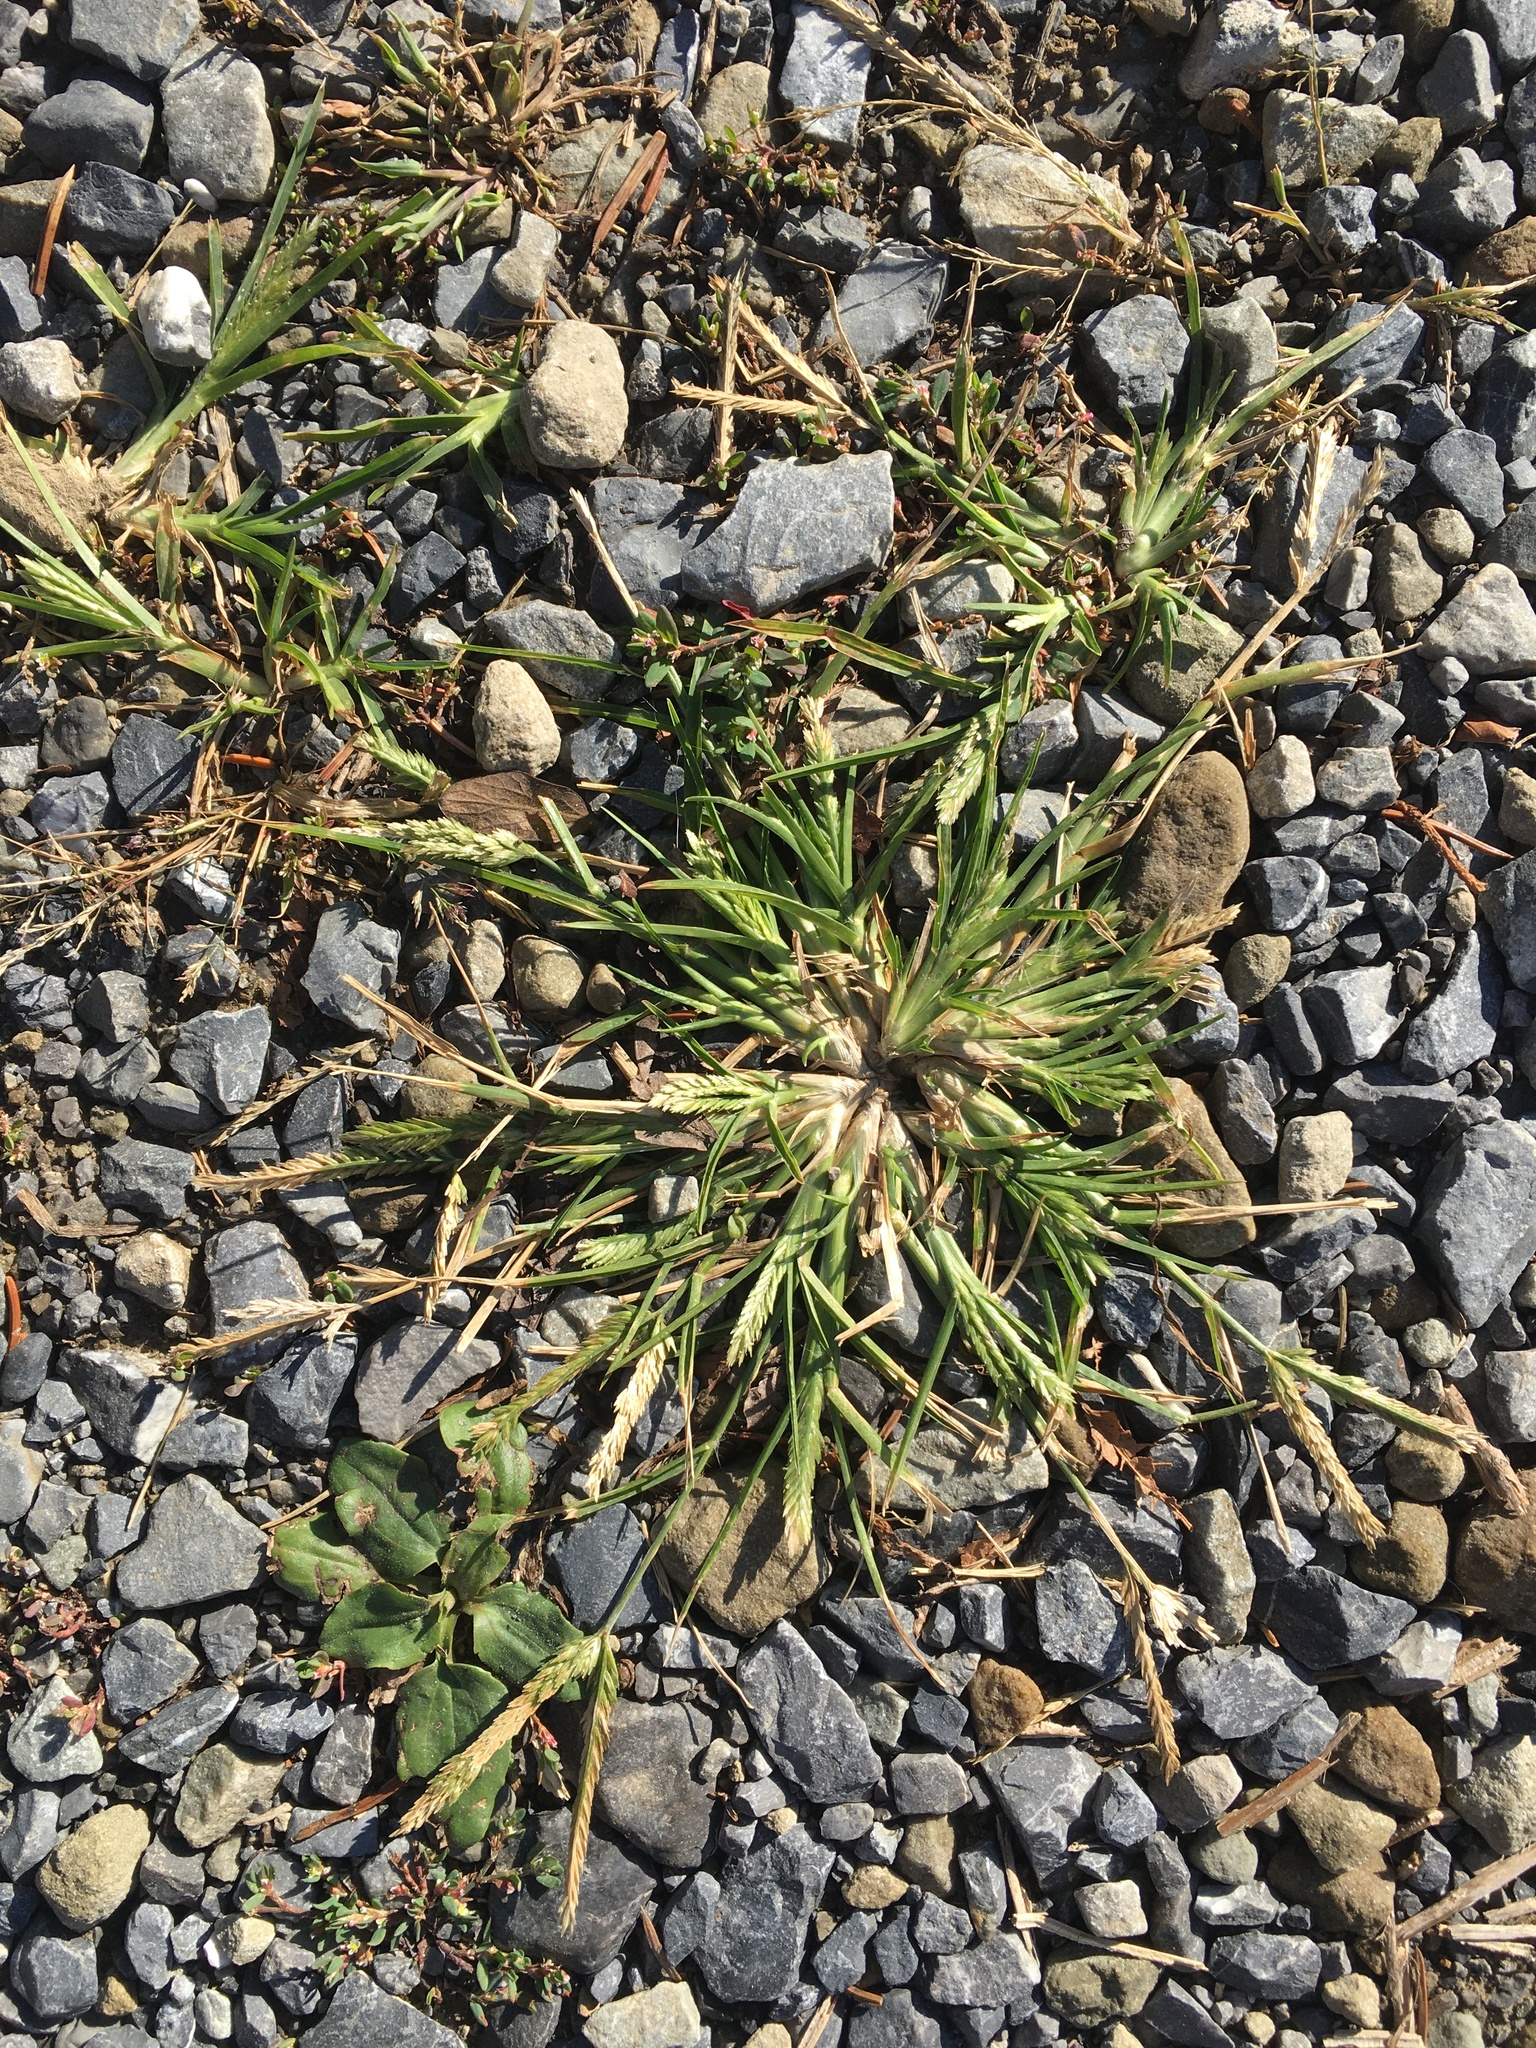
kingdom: Plantae
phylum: Tracheophyta
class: Liliopsida
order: Poales
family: Poaceae
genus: Eleusine
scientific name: Eleusine indica
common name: Yard-grass
